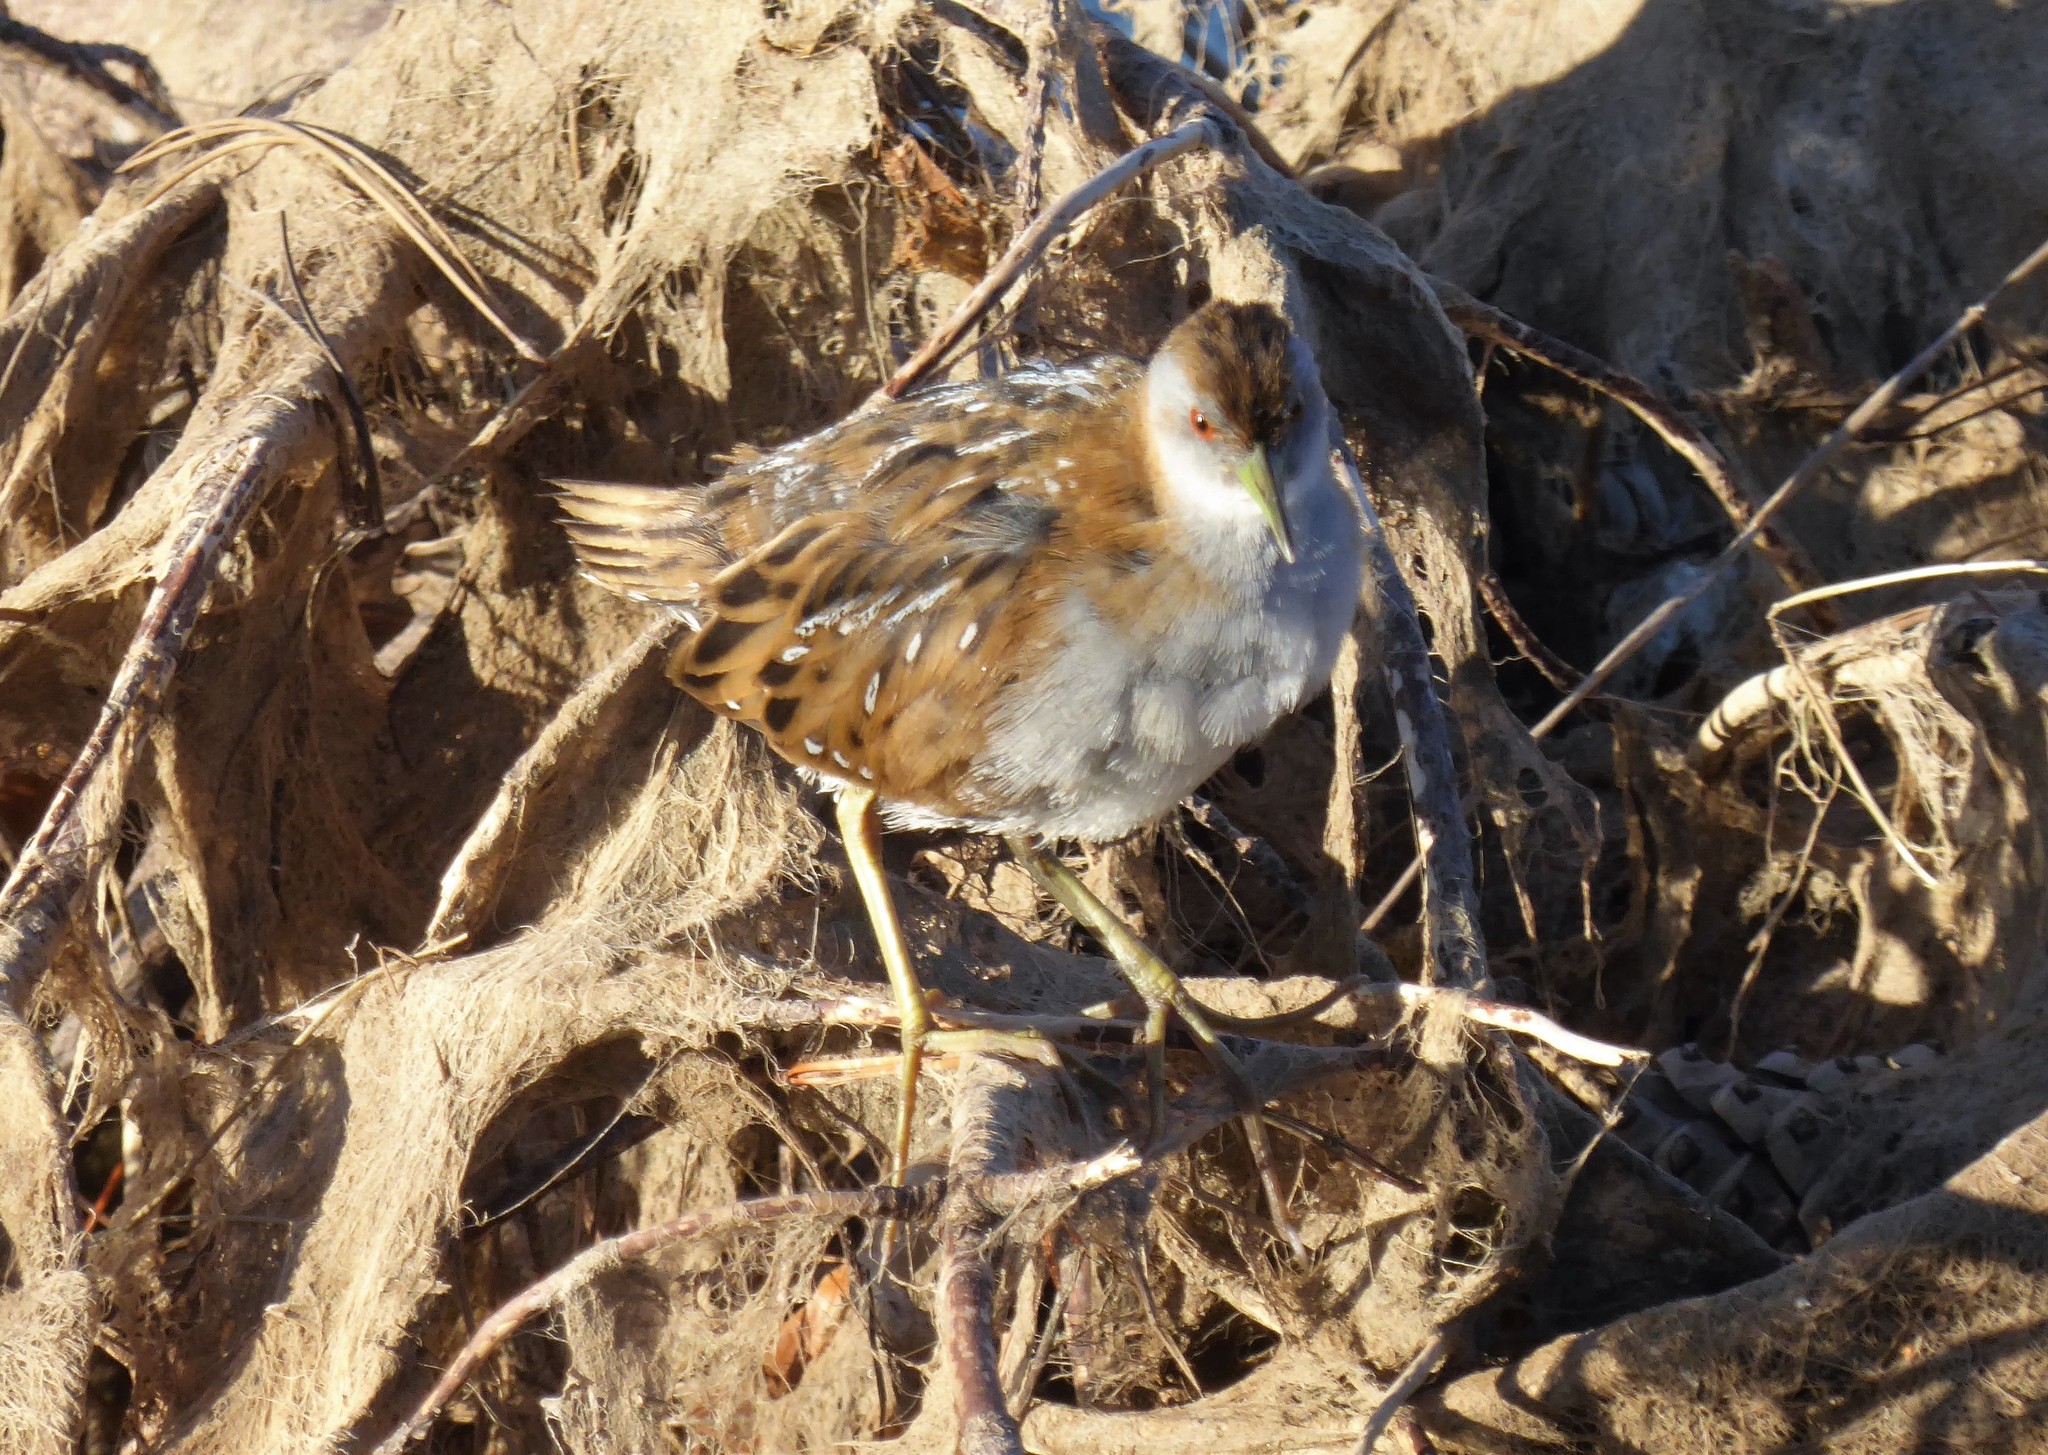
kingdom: Animalia
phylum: Chordata
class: Aves
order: Gruiformes
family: Rallidae
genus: Porzana
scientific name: Porzana pusilla
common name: Baillon's crake
